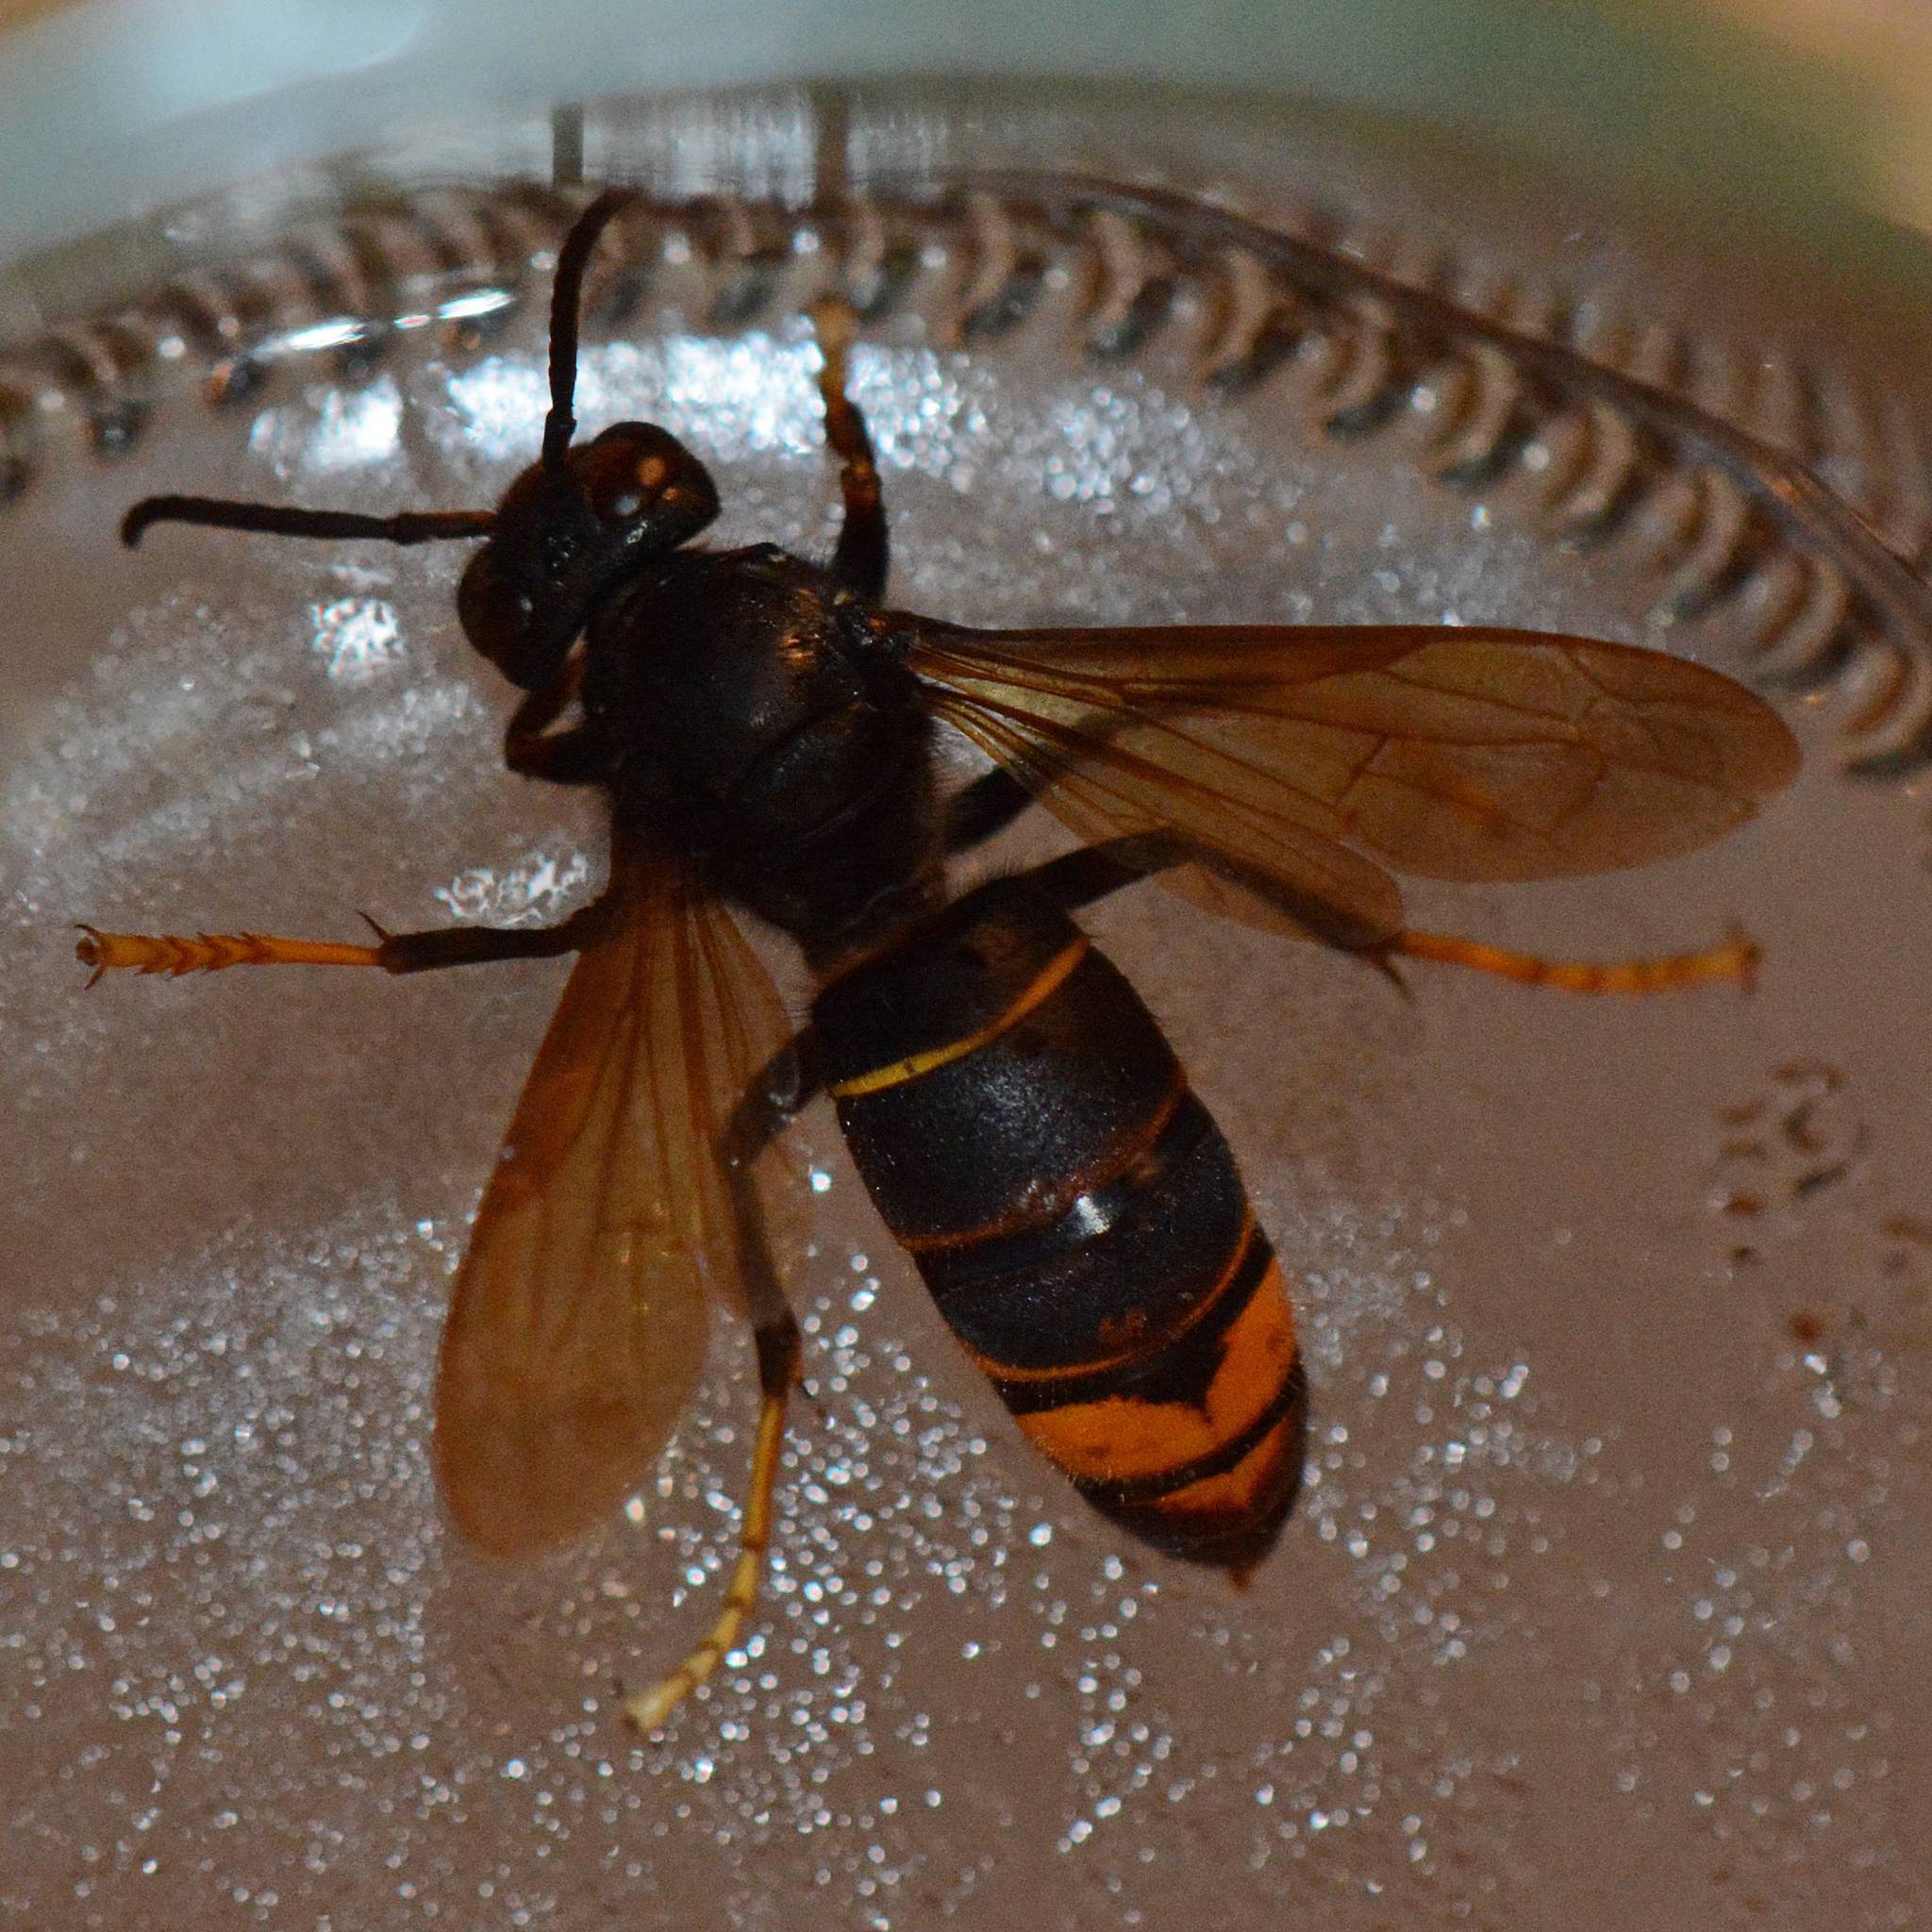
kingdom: Animalia
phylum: Arthropoda
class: Insecta
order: Hymenoptera
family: Vespidae
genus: Vespa
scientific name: Vespa velutina
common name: Asian hornet
